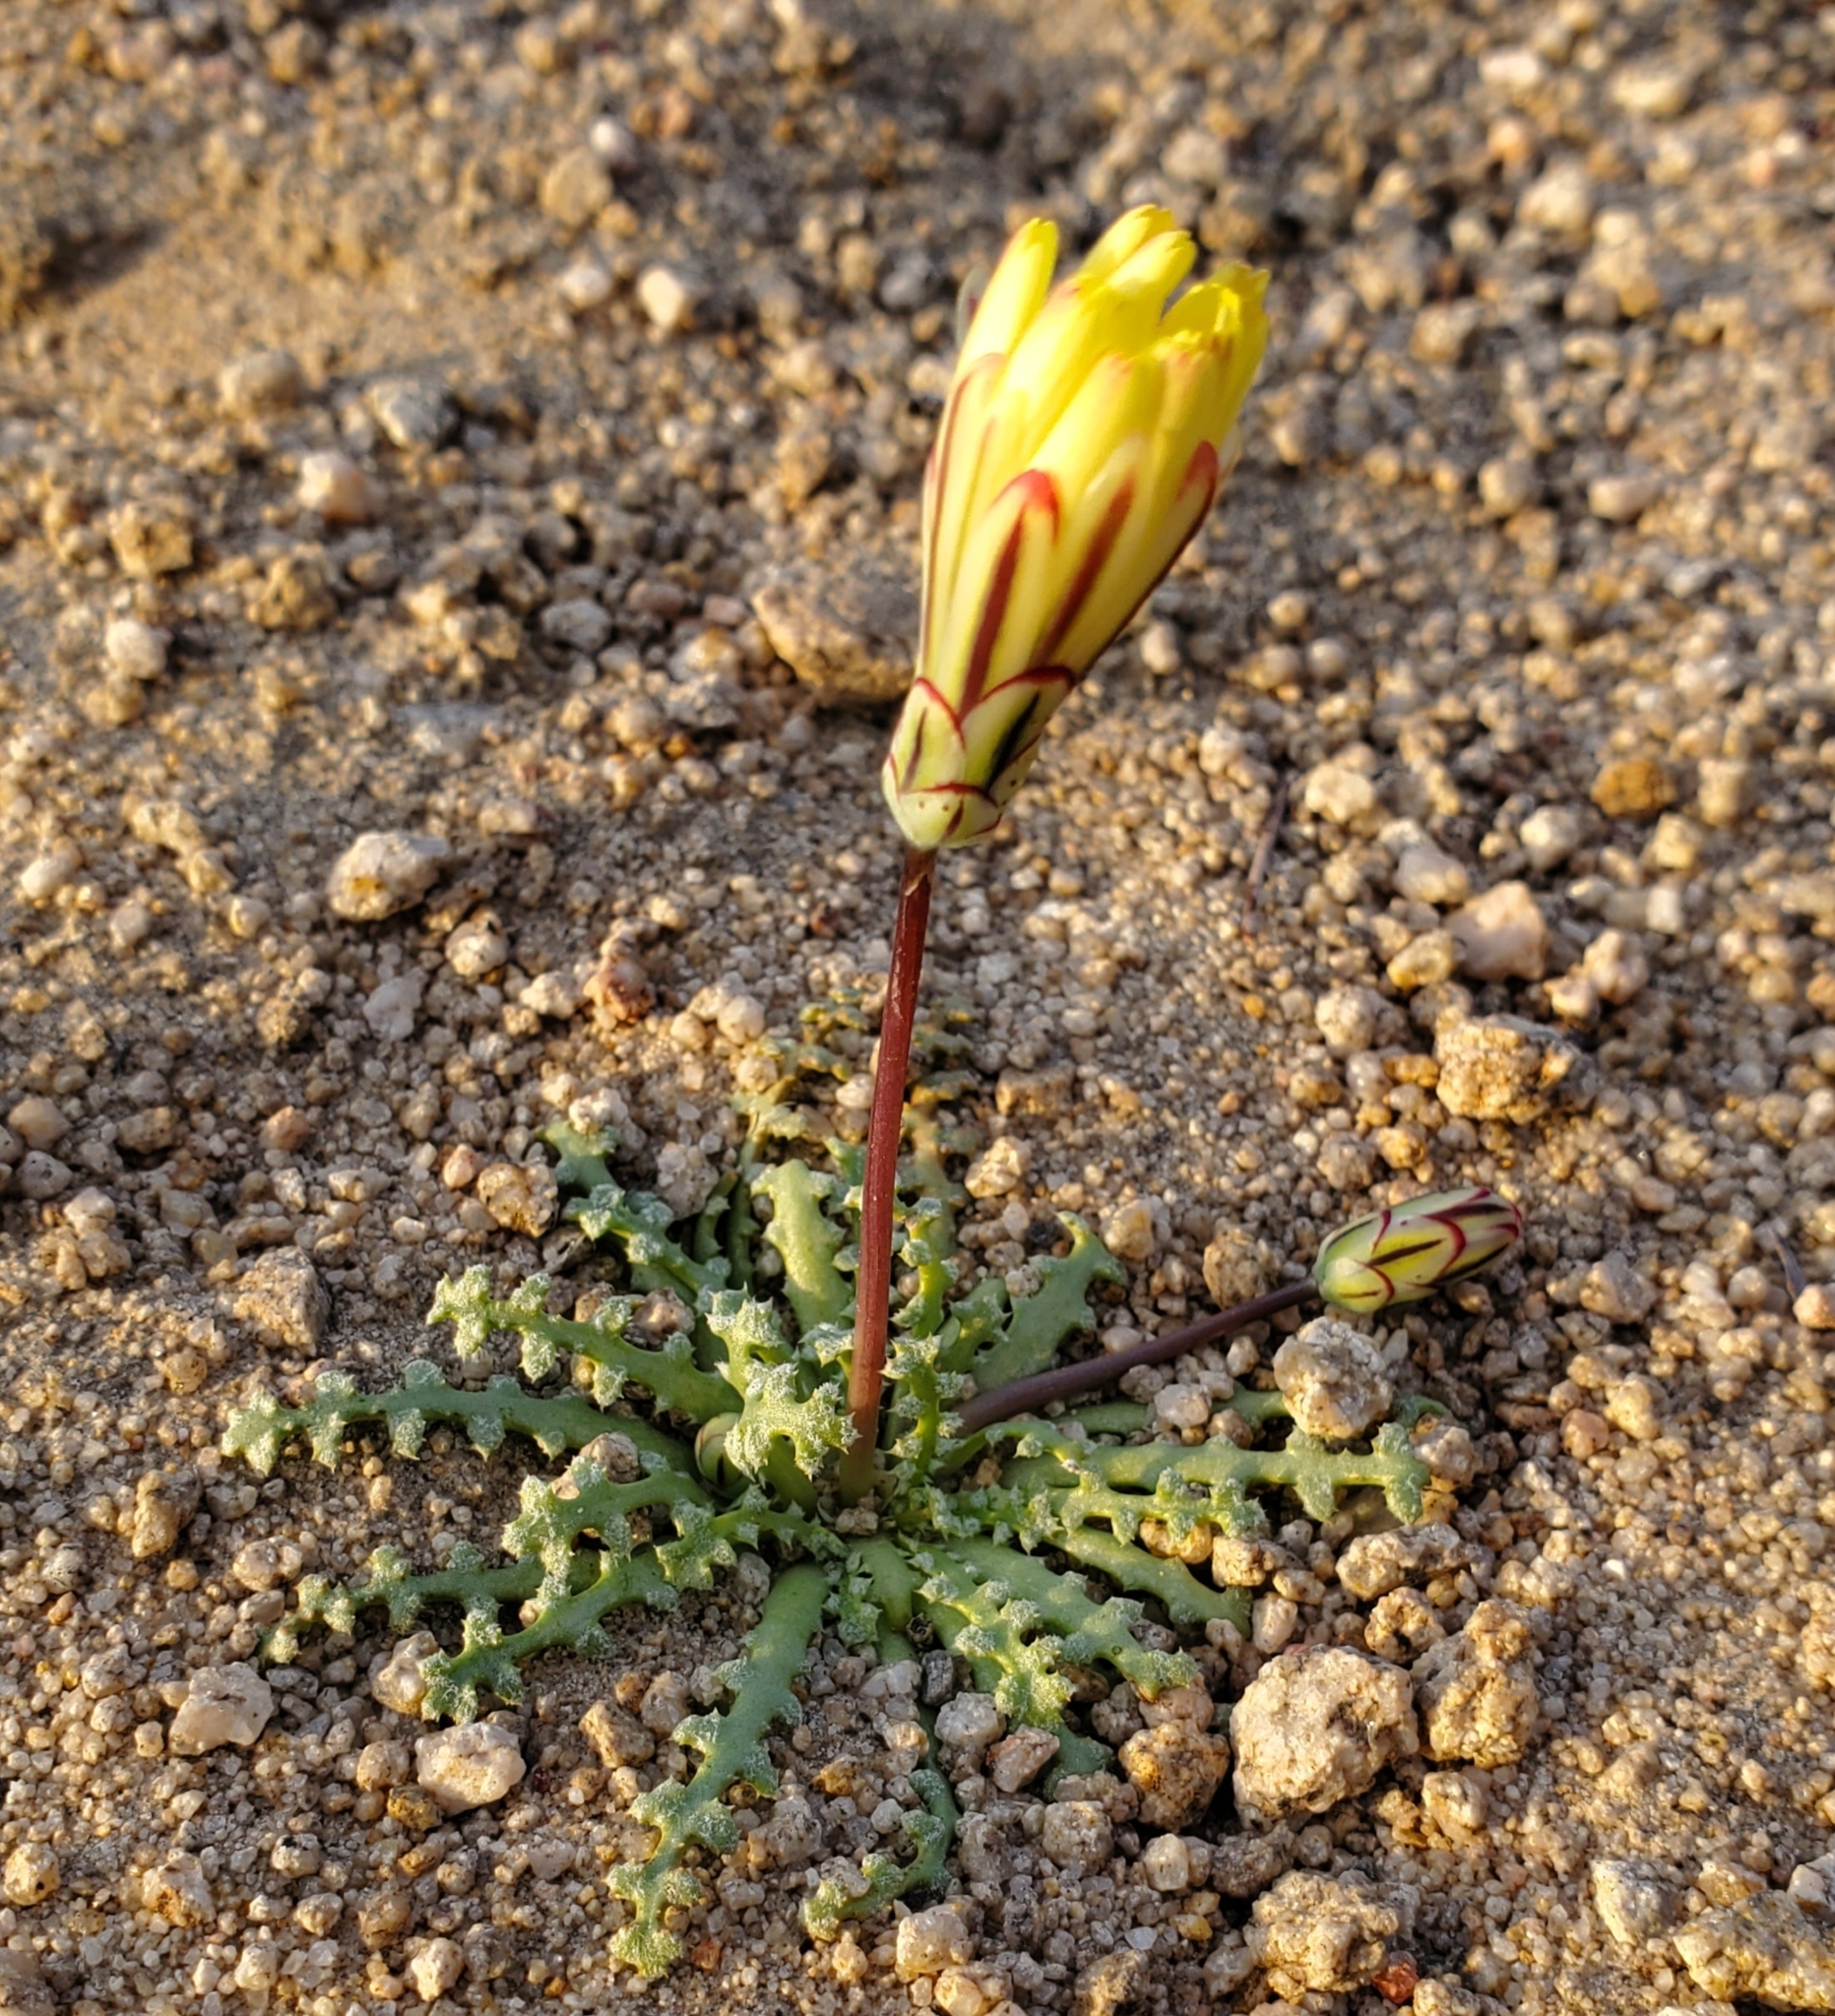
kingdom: Plantae
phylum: Tracheophyta
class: Magnoliopsida
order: Asterales
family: Asteraceae
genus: Anisocoma
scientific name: Anisocoma acaulis
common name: Scalebud
